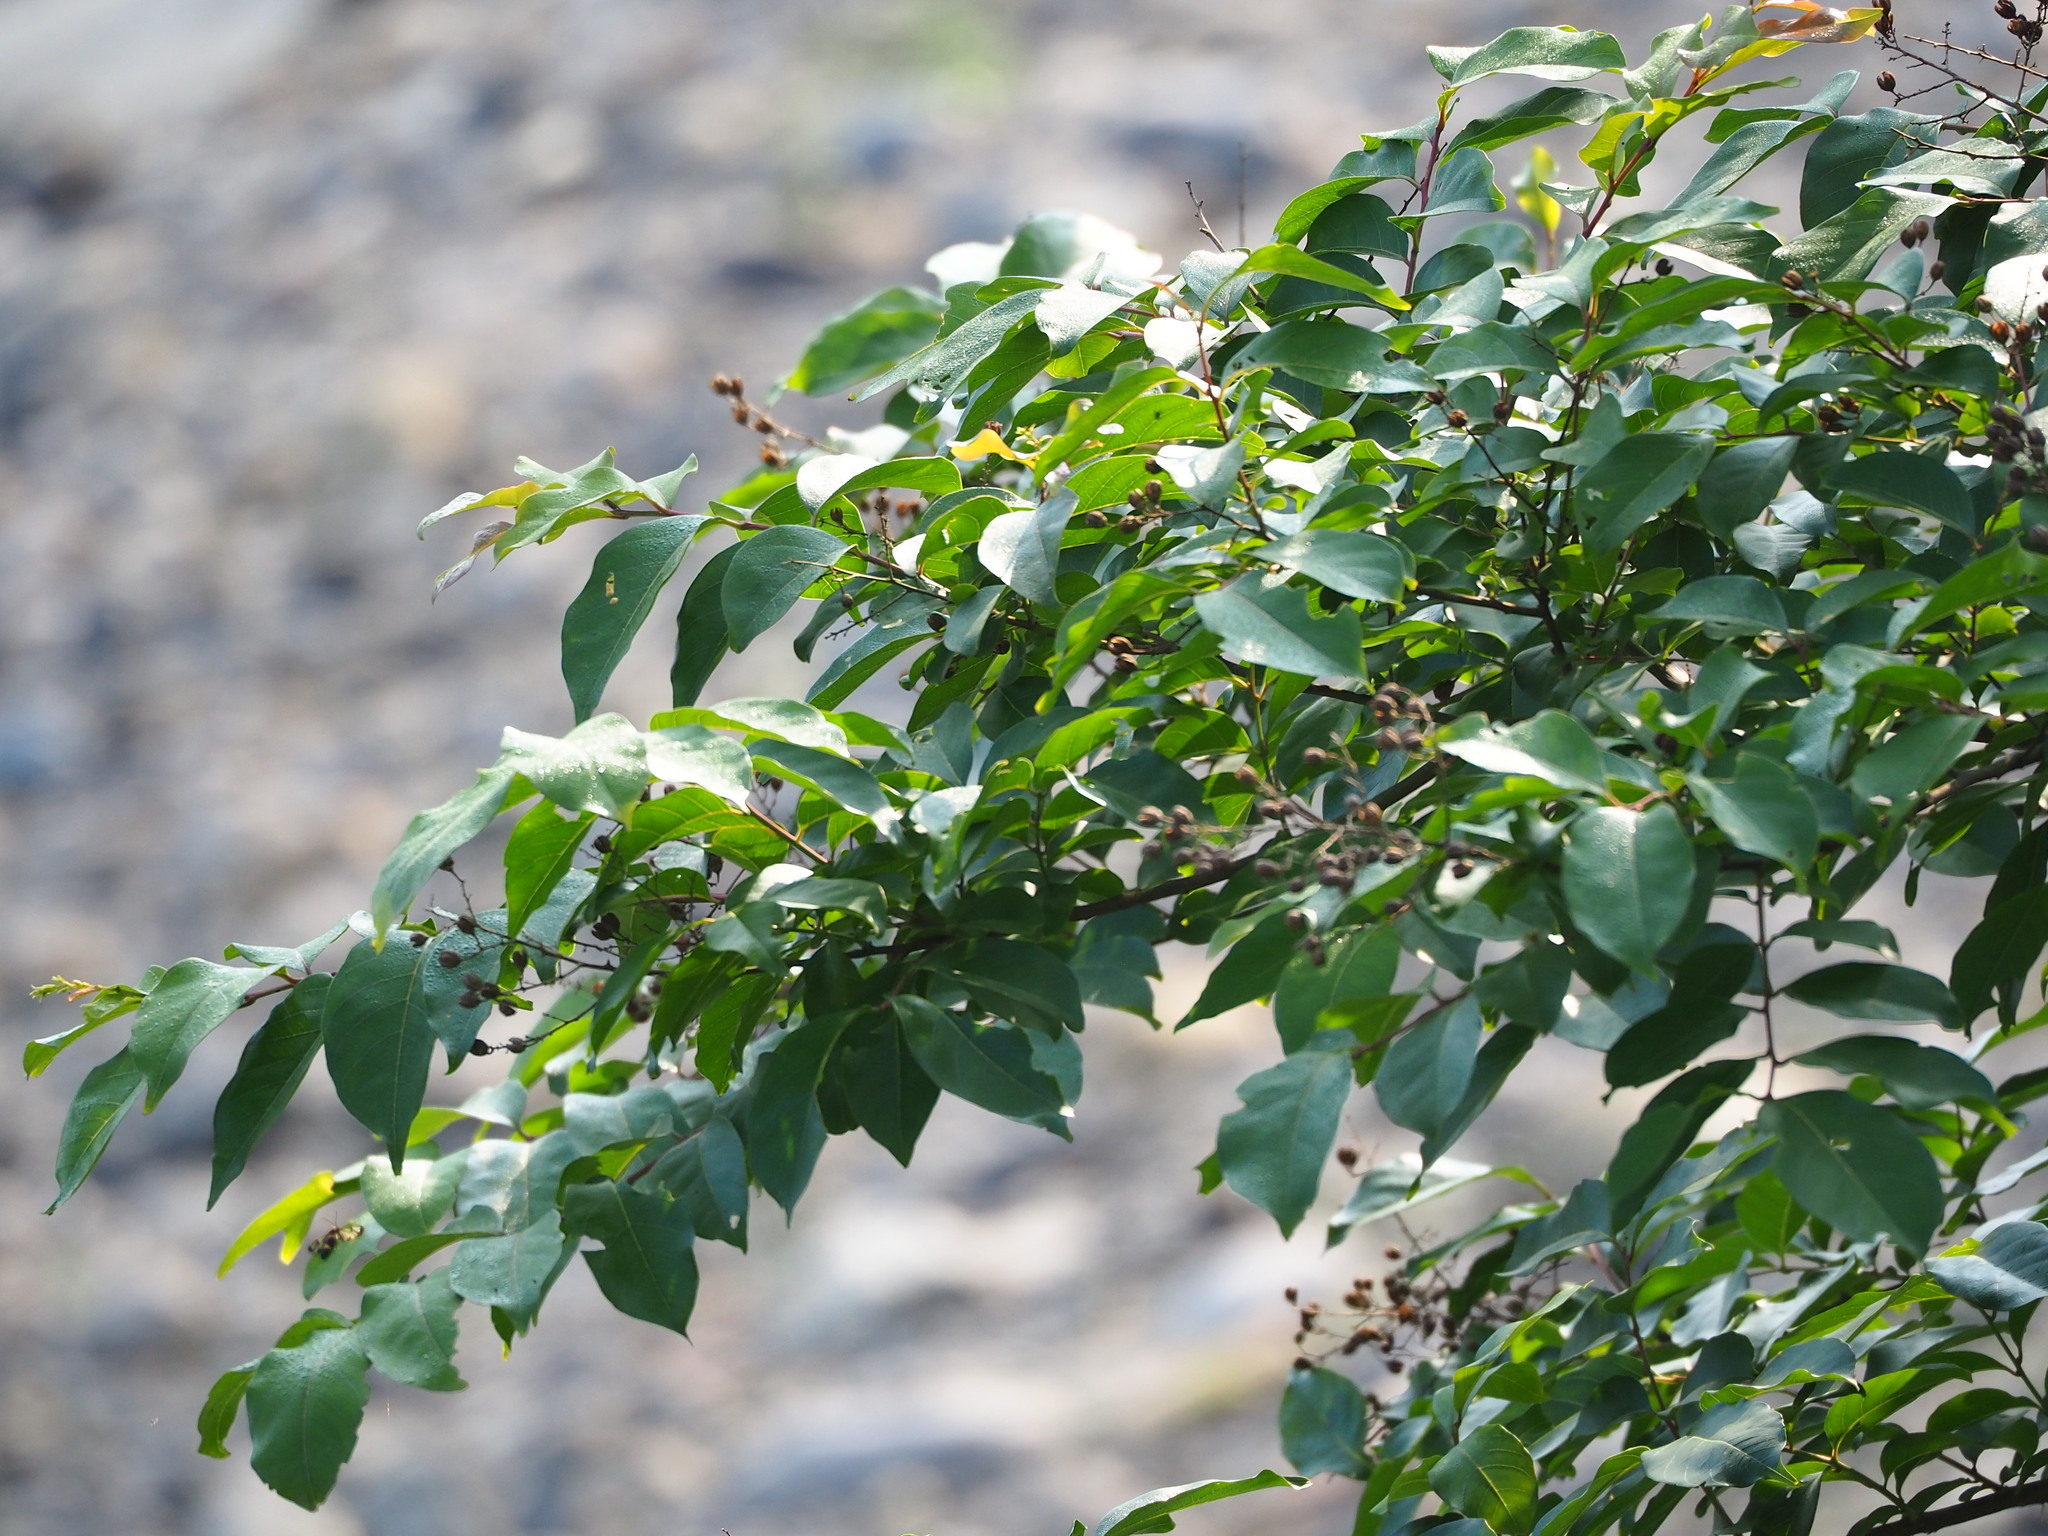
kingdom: Plantae
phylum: Tracheophyta
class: Magnoliopsida
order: Myrtales
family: Lythraceae
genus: Lagerstroemia
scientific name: Lagerstroemia subcostata
